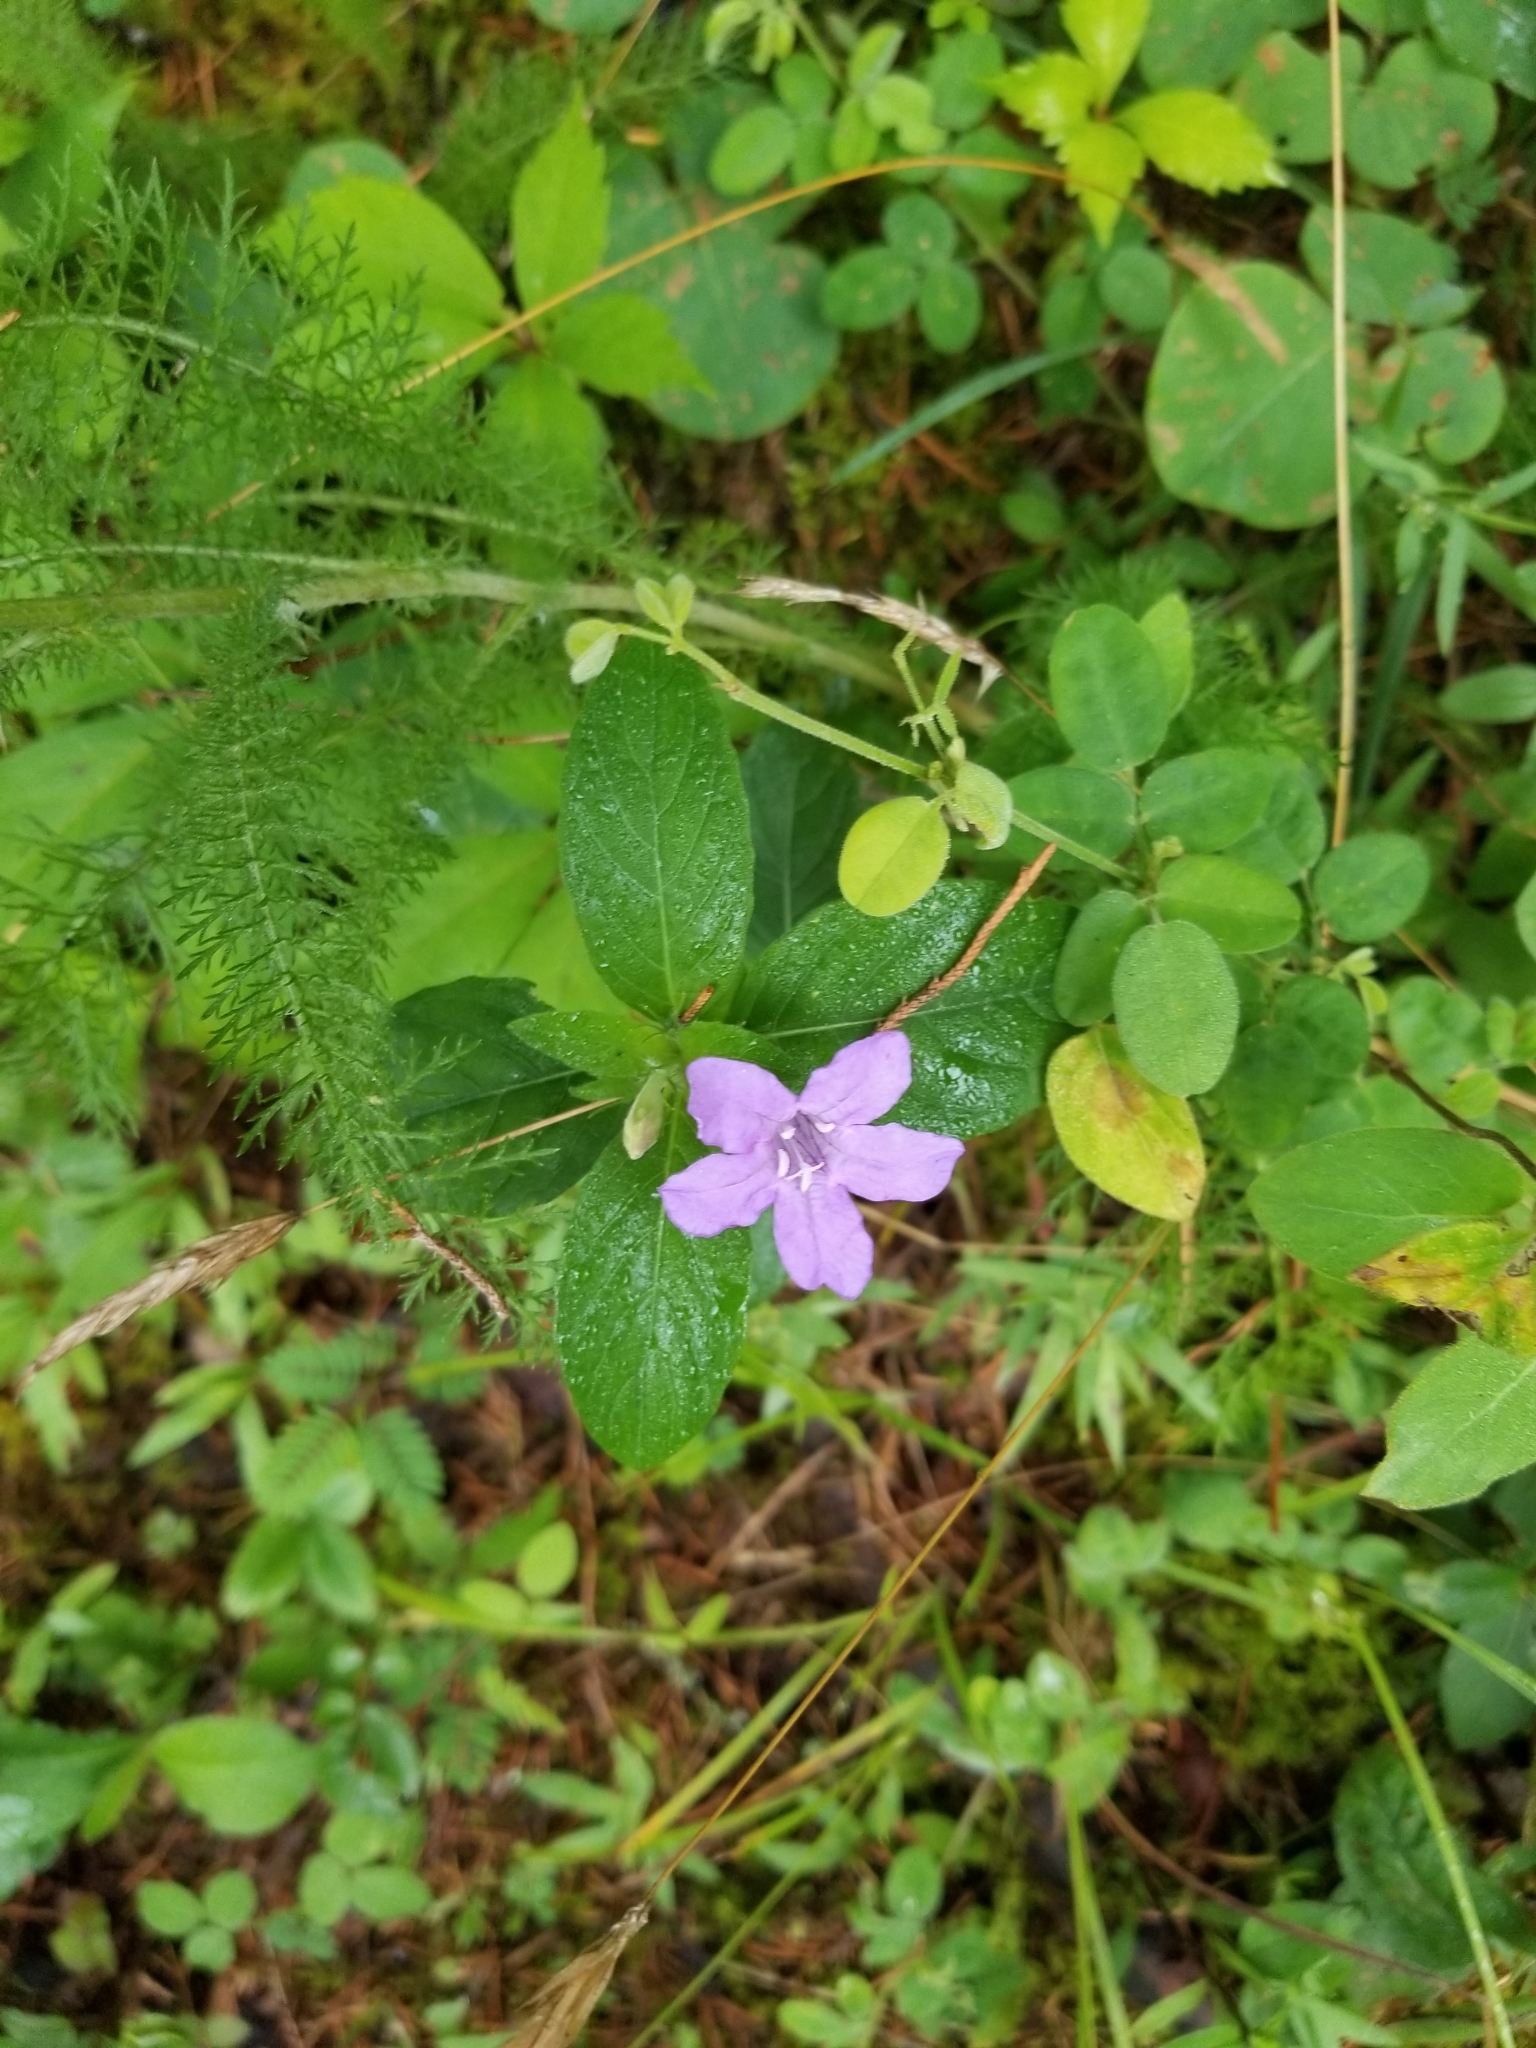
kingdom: Plantae
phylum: Tracheophyta
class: Magnoliopsida
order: Lamiales
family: Acanthaceae
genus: Ruellia
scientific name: Ruellia caroliniensis
